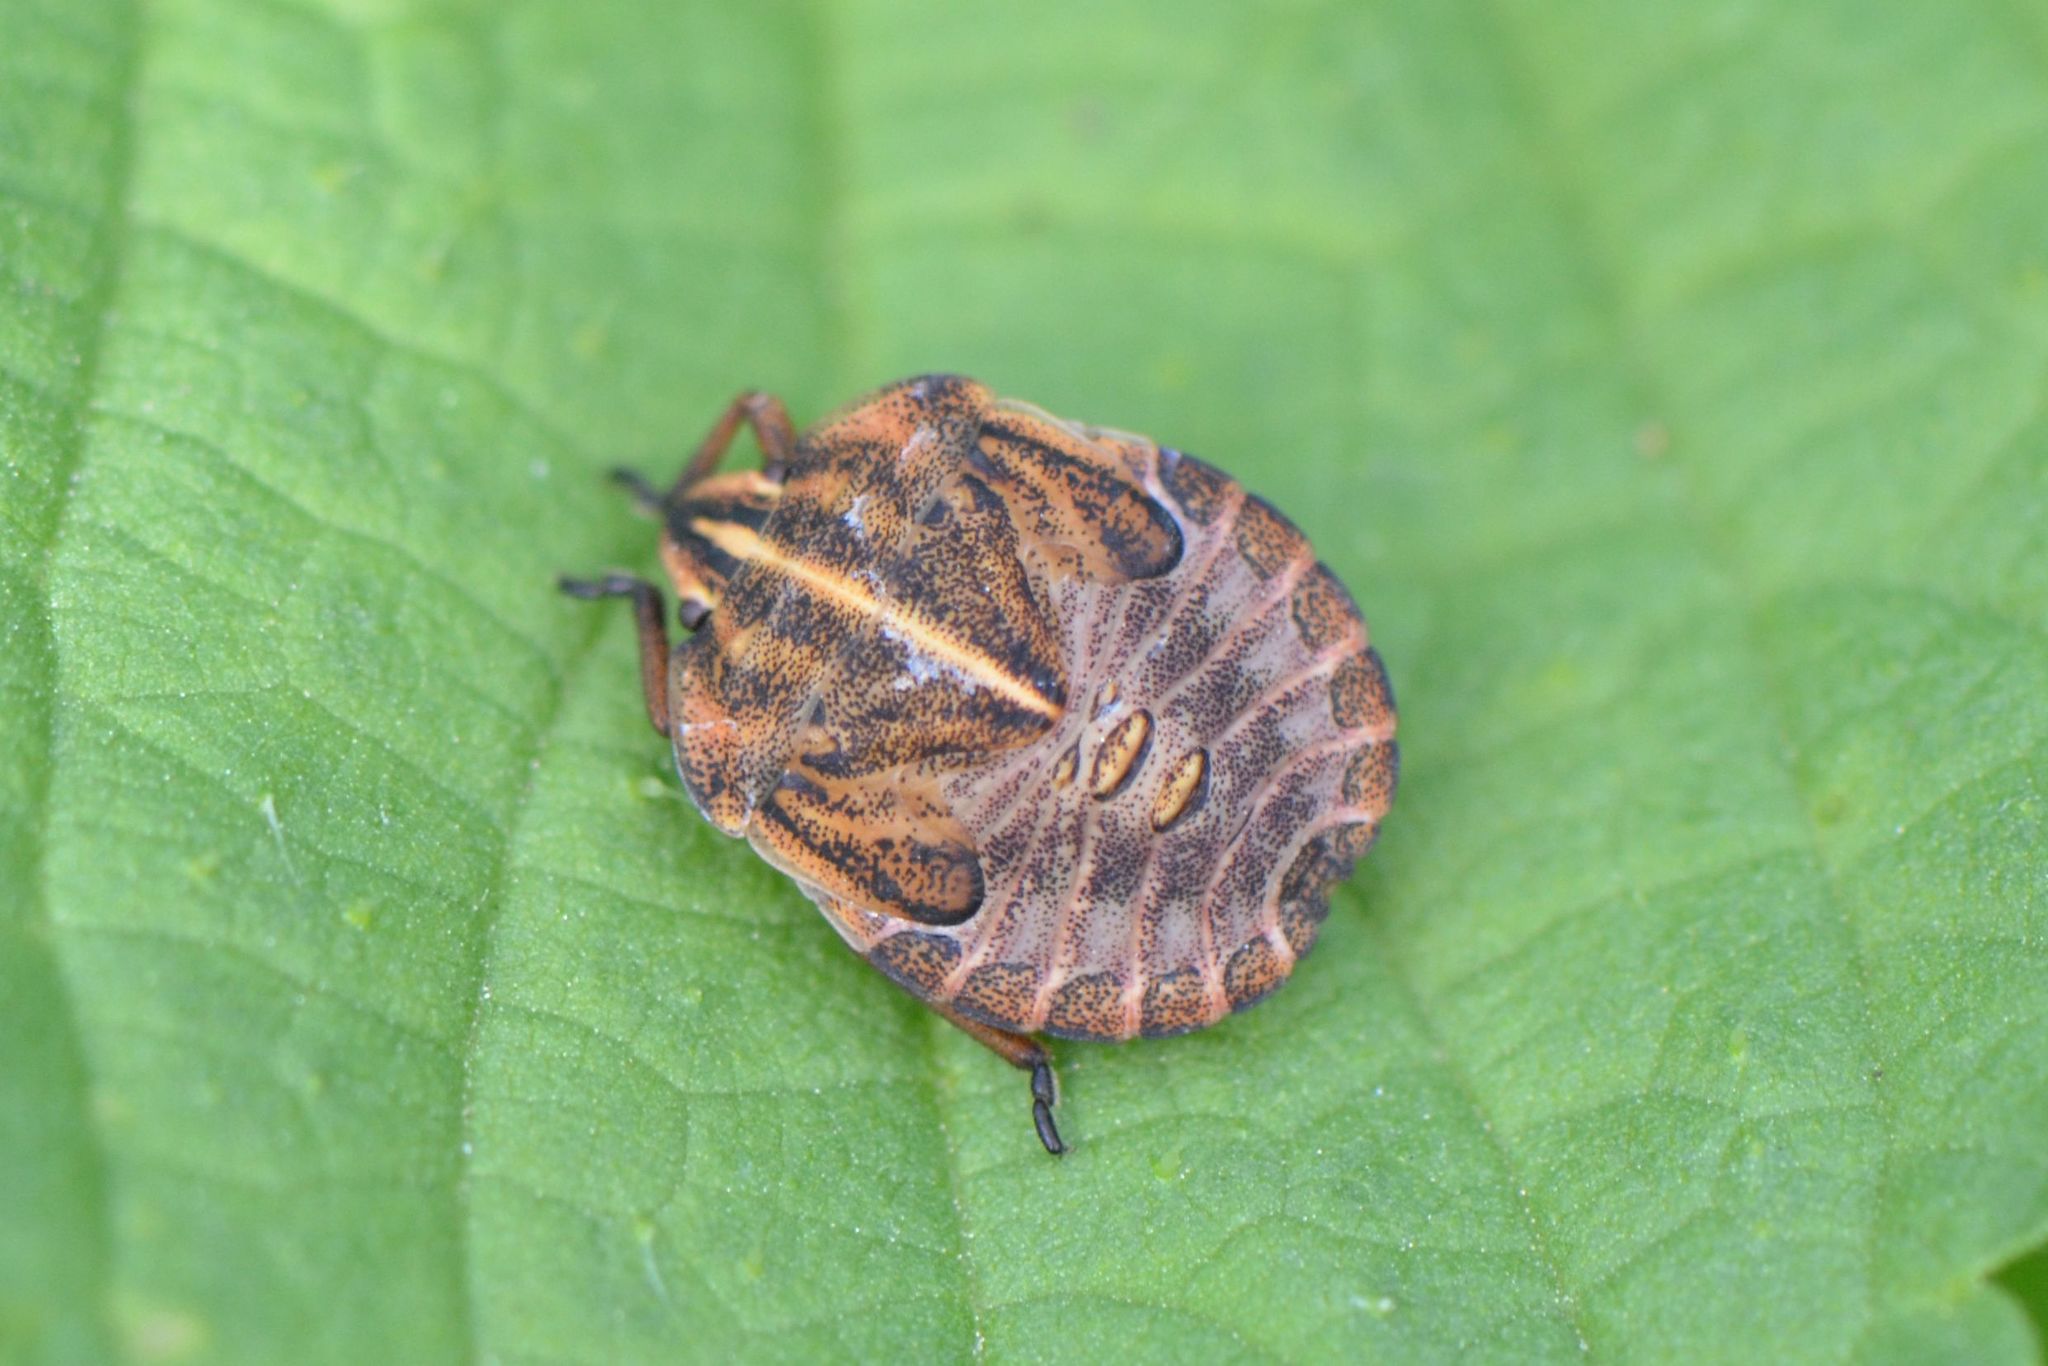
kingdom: Animalia
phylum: Arthropoda
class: Insecta
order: Hemiptera
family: Pentatomidae
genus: Graphosoma
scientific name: Graphosoma italicum
